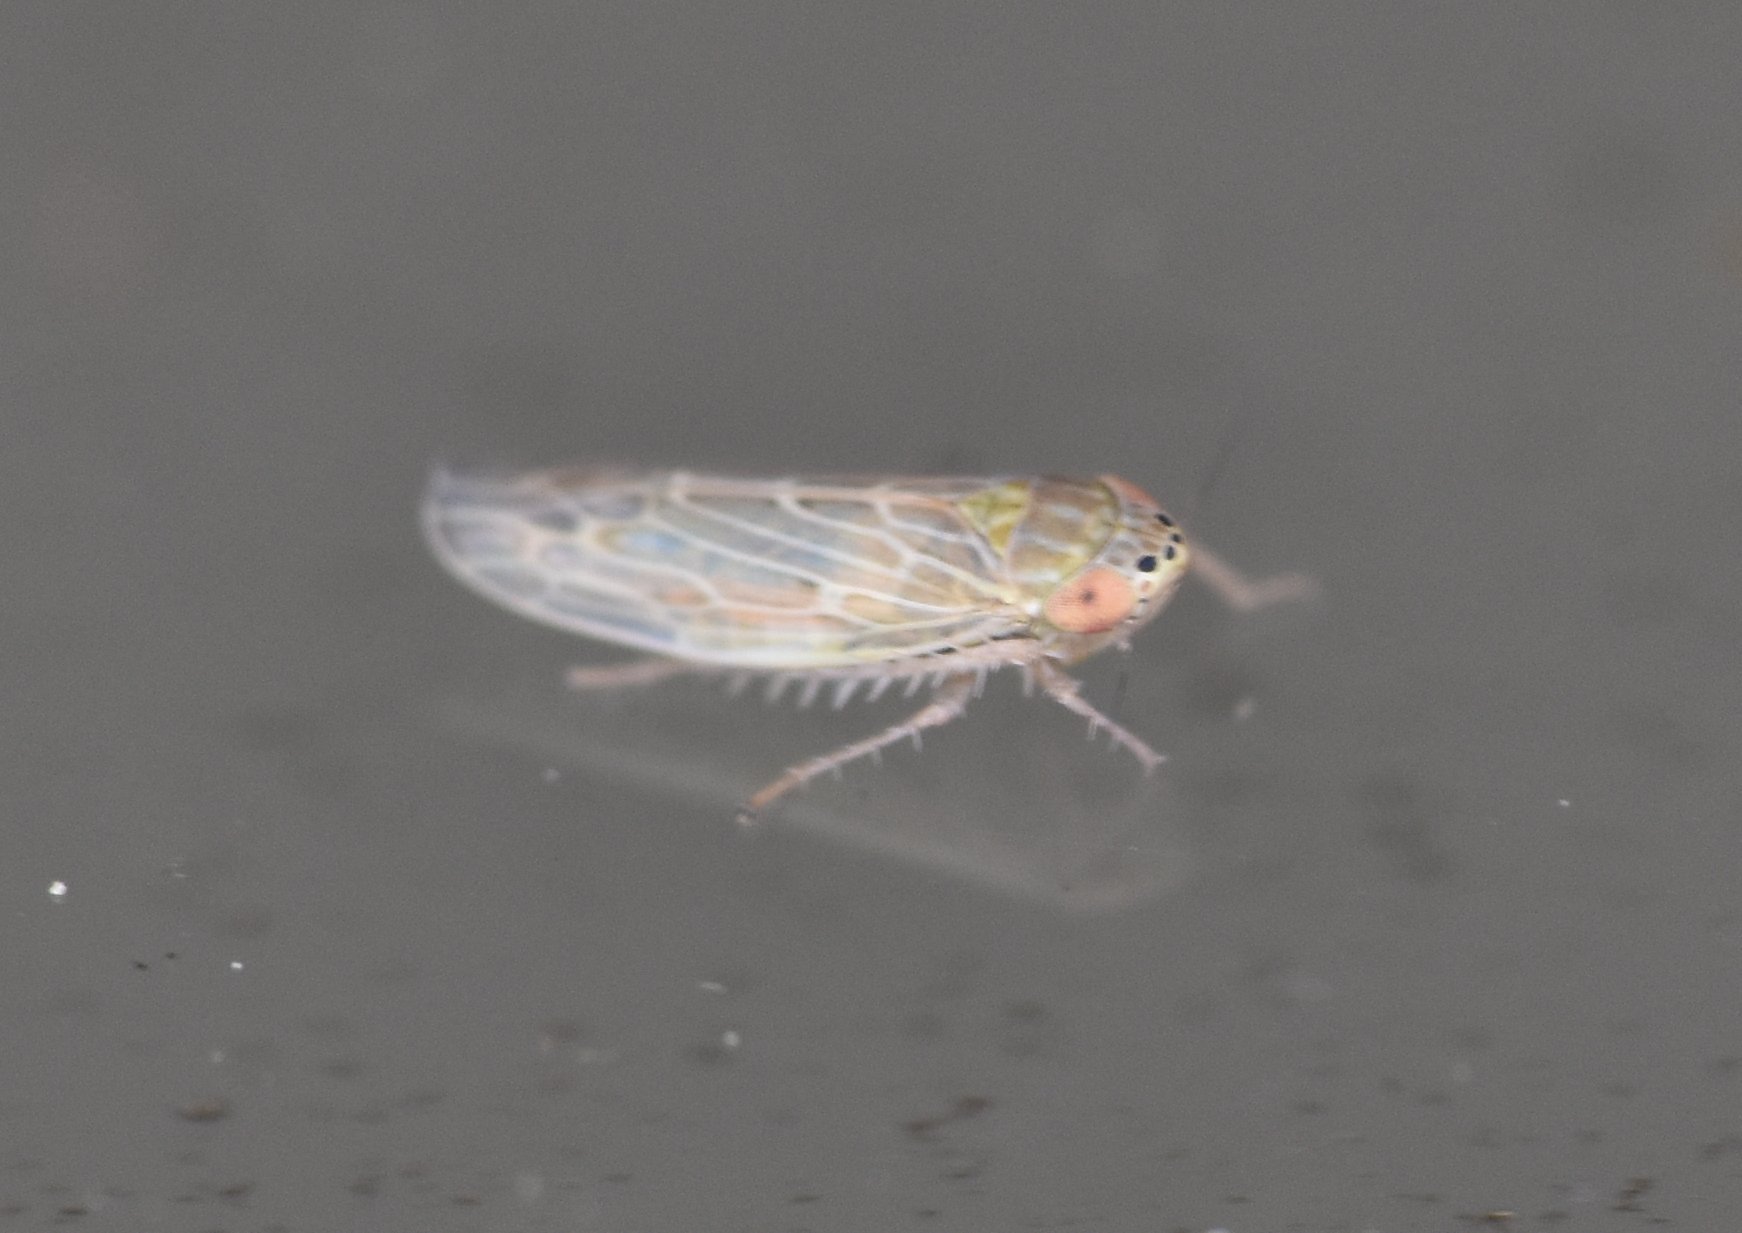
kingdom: Animalia
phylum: Arthropoda
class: Insecta
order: Hemiptera
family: Cicadellidae
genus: Graminella
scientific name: Graminella sonora
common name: Lesser lawn leafhopper
